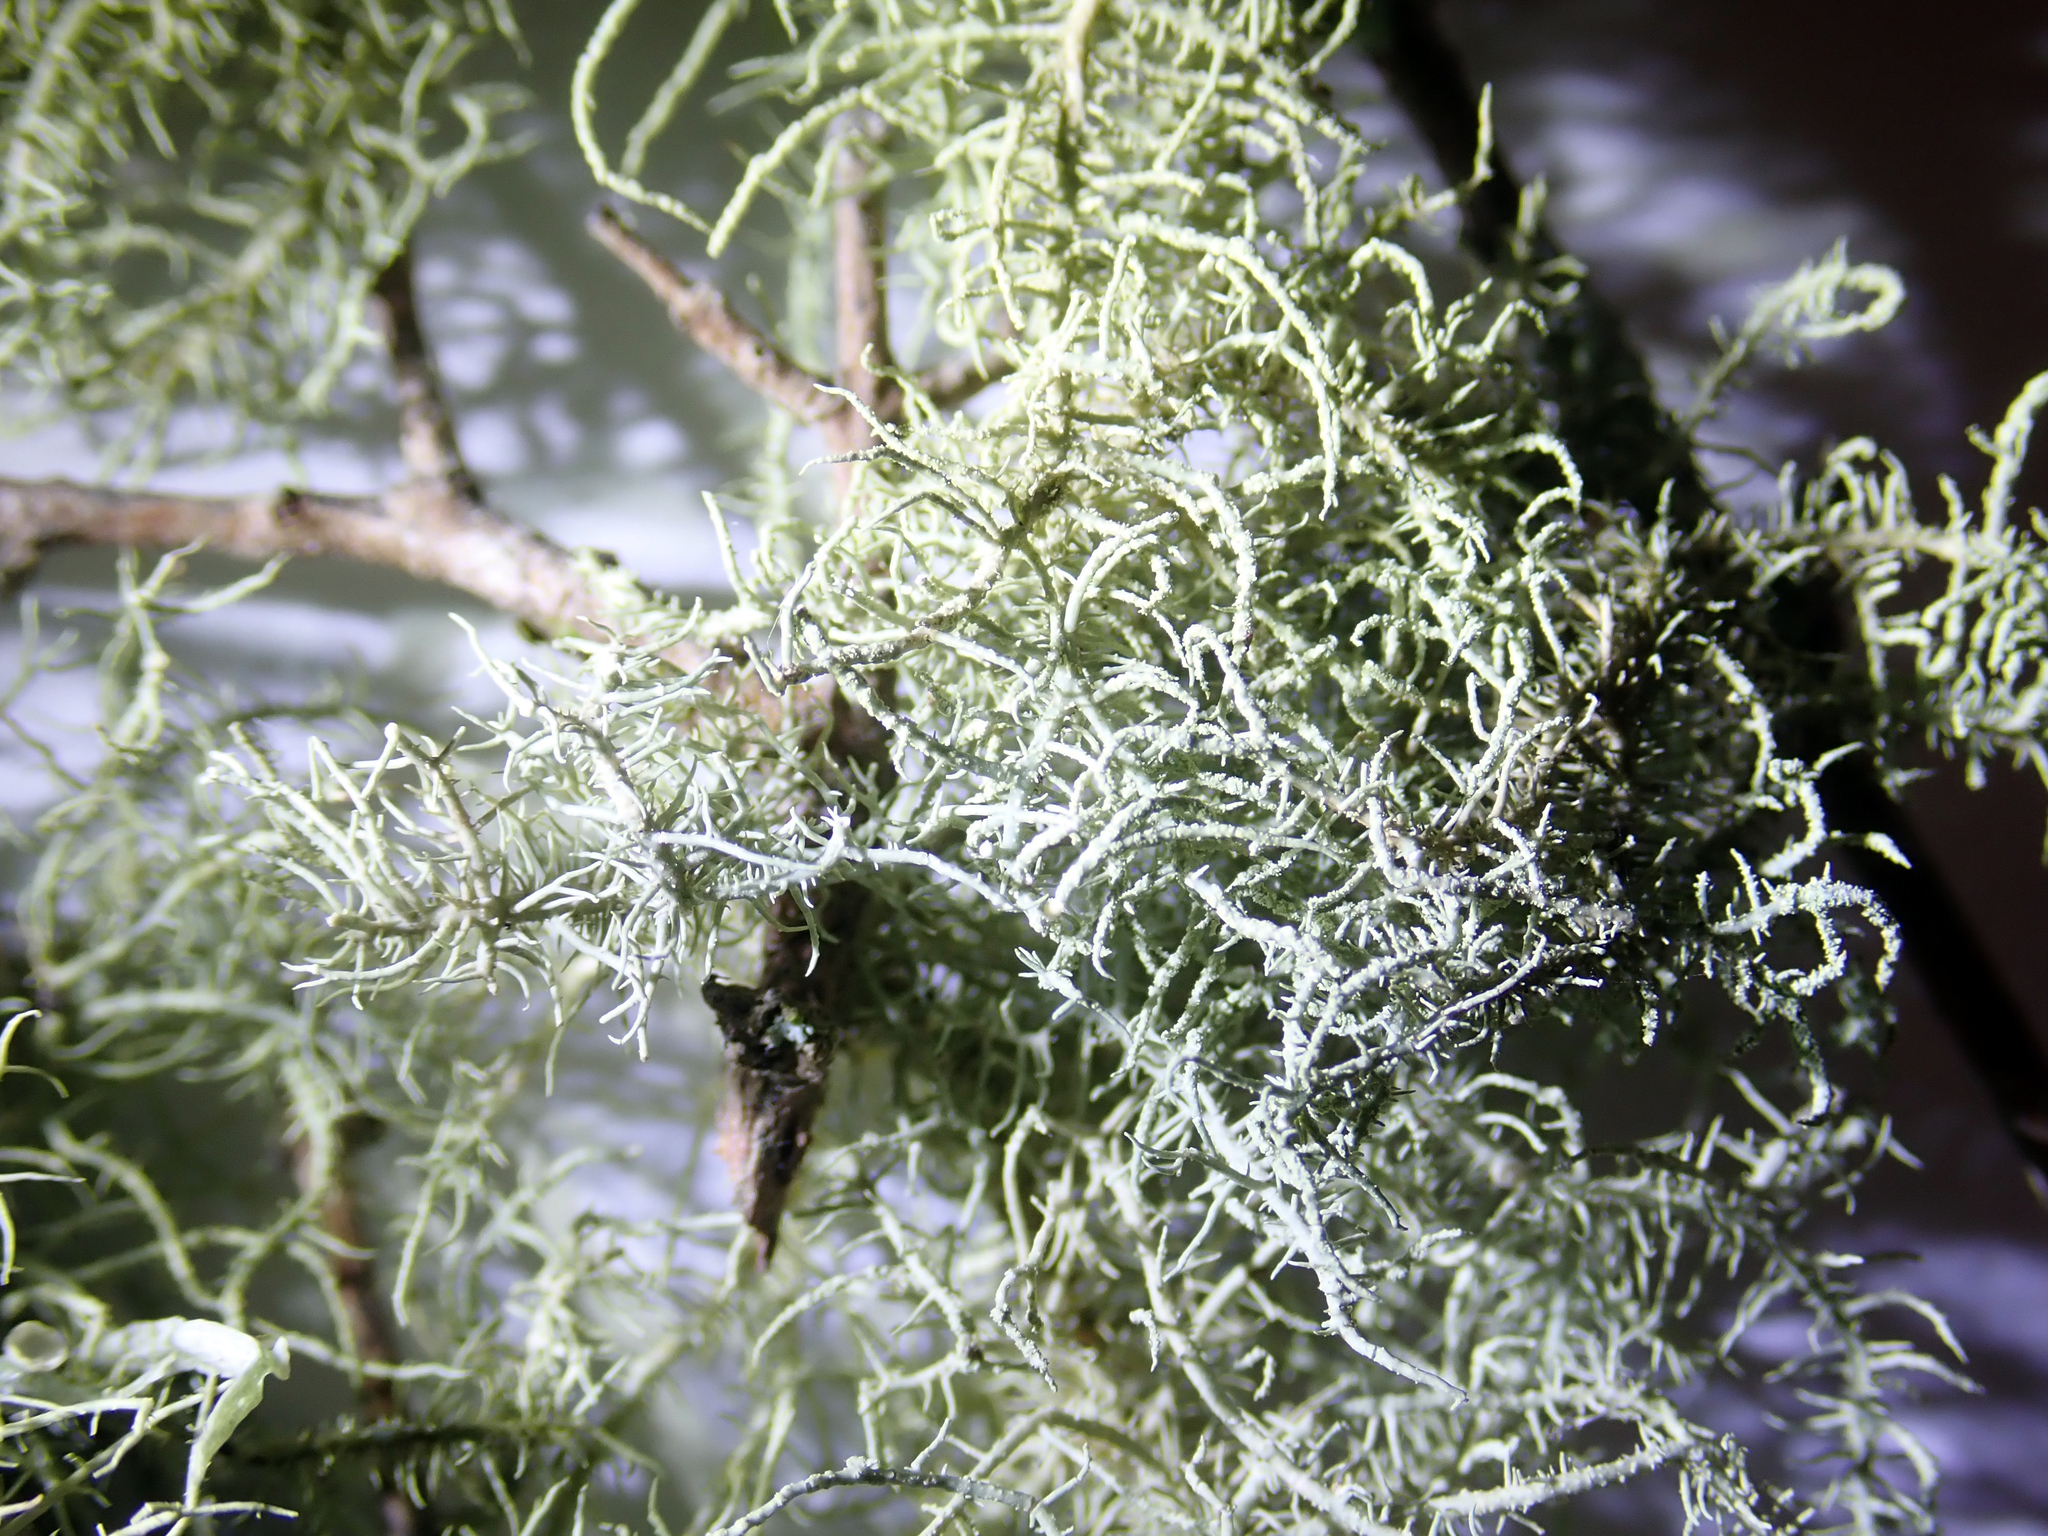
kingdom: Fungi
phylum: Ascomycota
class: Lecanoromycetes
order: Lecanorales
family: Parmeliaceae
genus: Usnea
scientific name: Usnea cornuta
